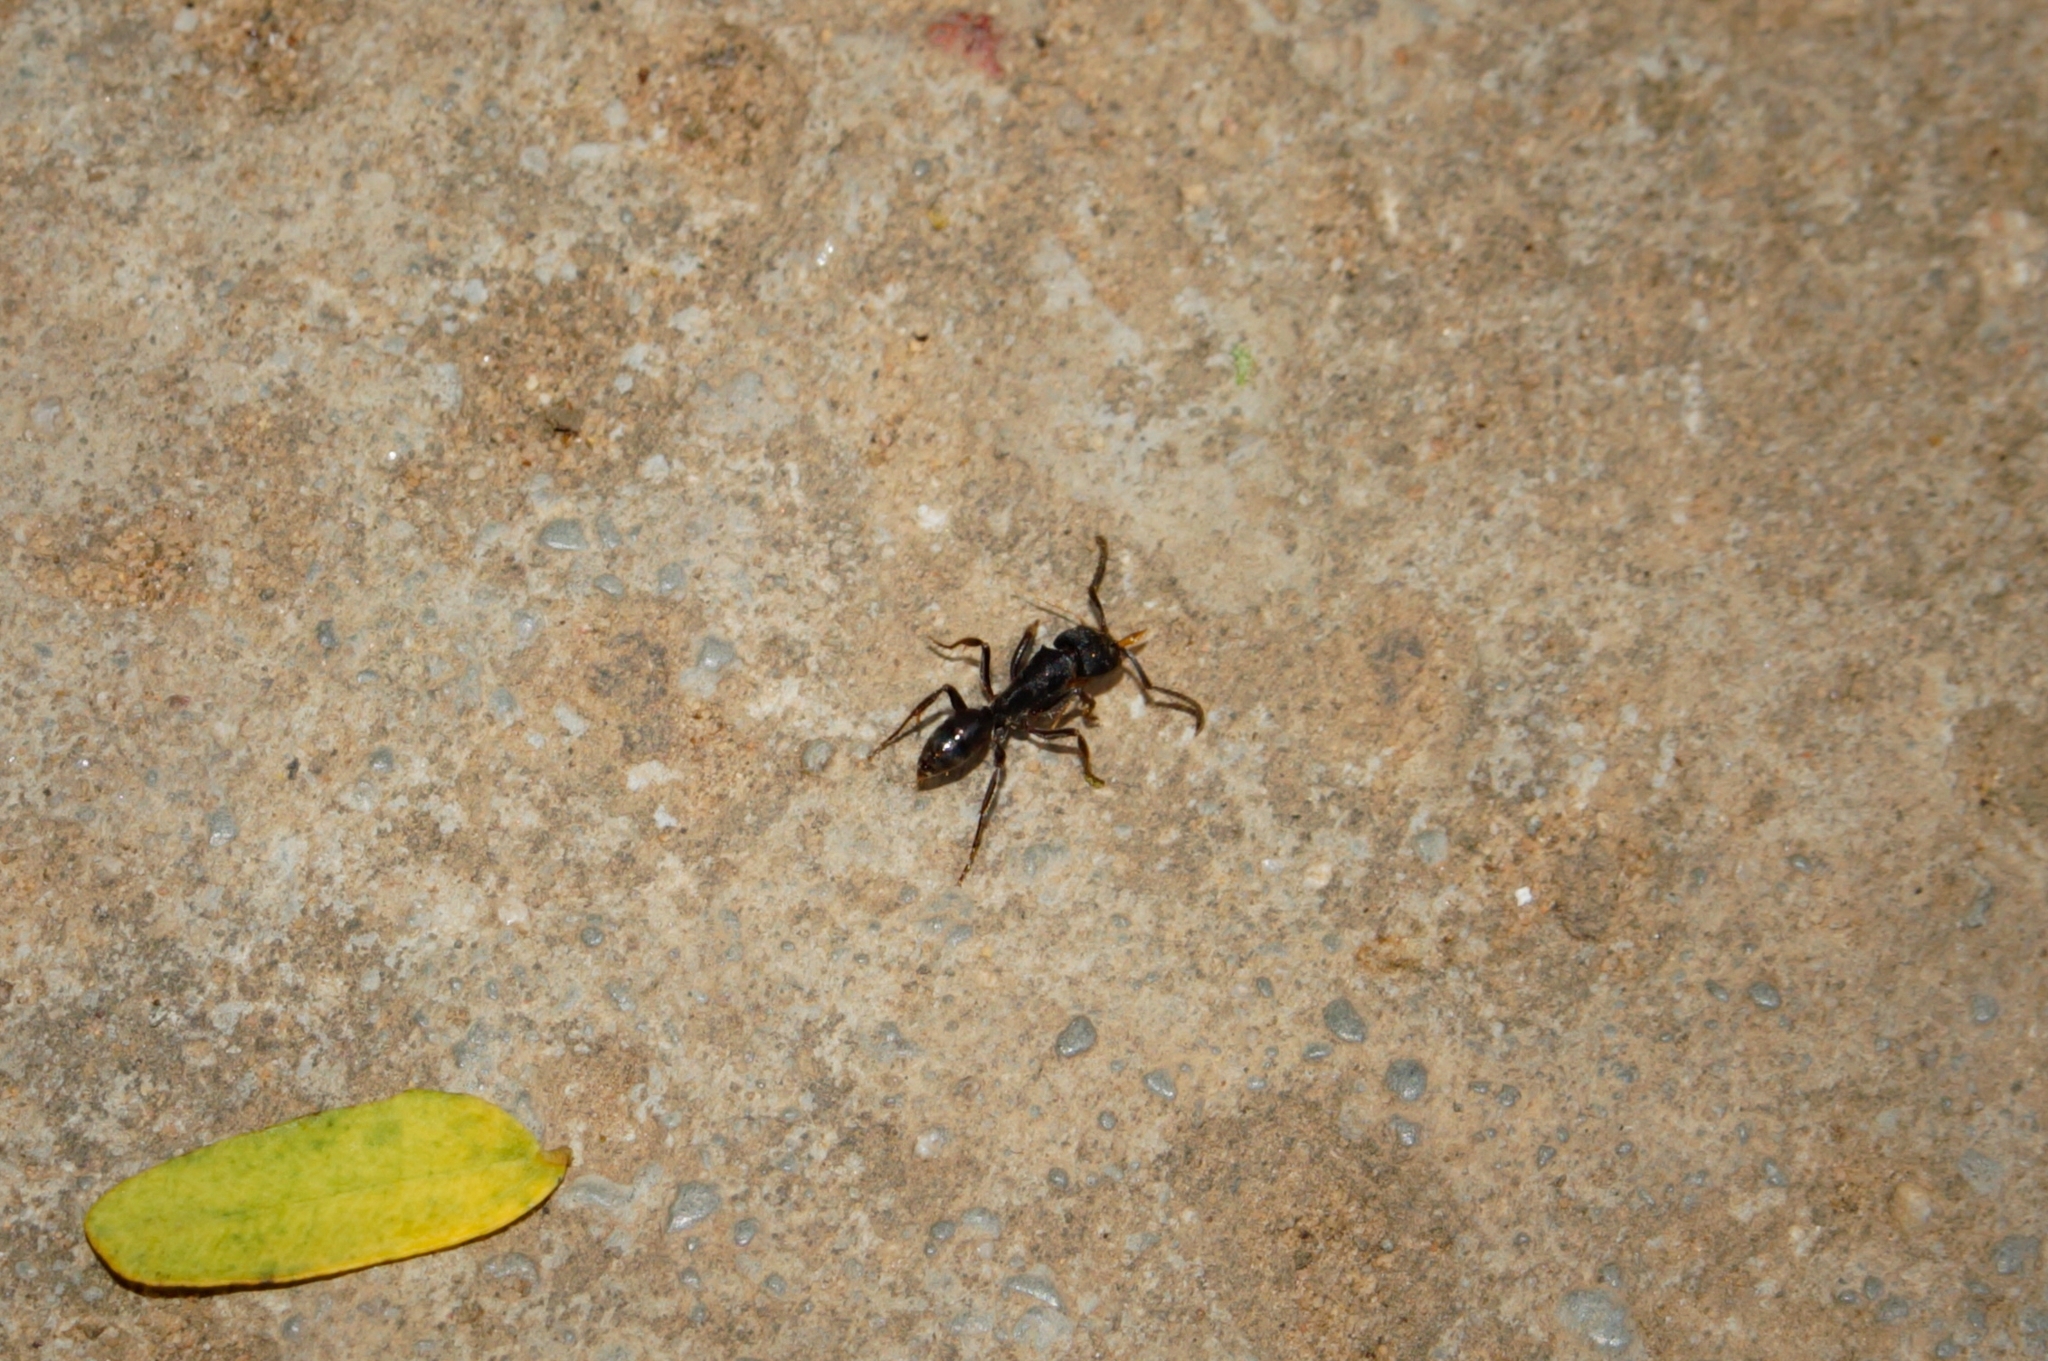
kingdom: Animalia
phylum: Arthropoda
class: Insecta
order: Hymenoptera
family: Formicidae
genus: Odontoponera
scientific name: Odontoponera denticulata
